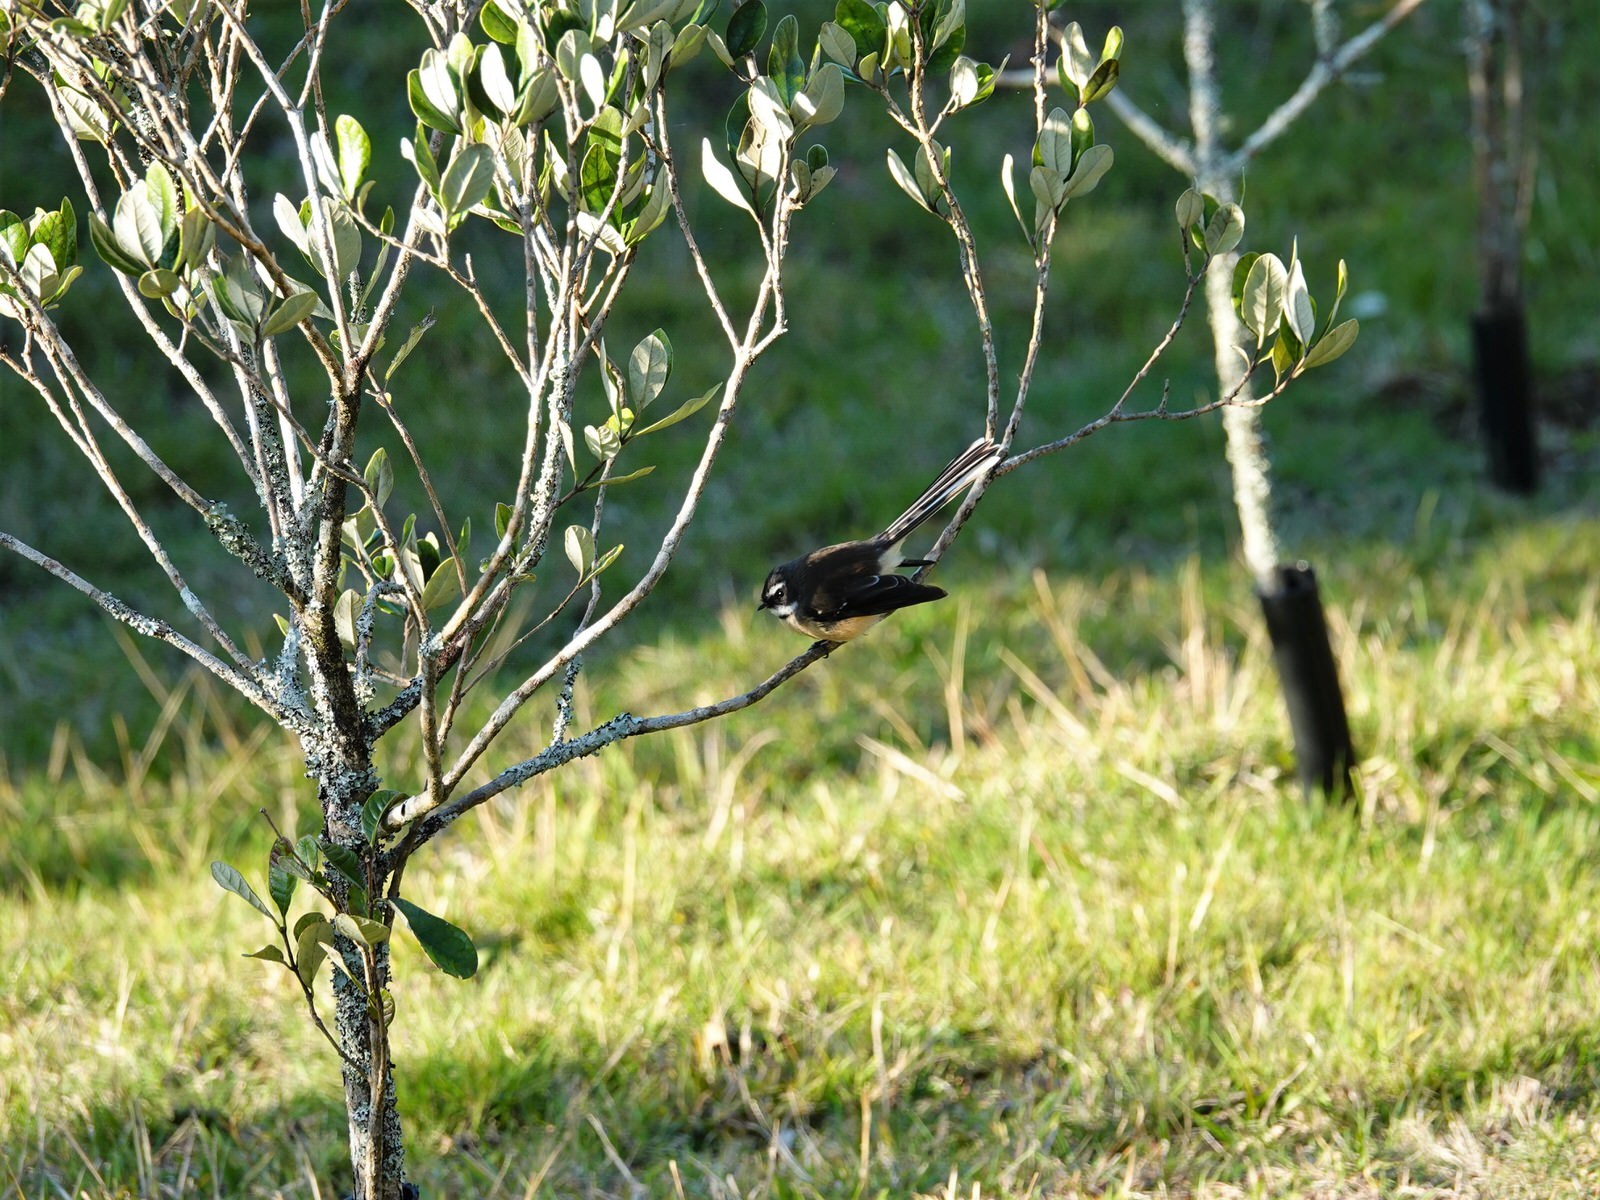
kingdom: Animalia
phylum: Chordata
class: Aves
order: Passeriformes
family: Rhipiduridae
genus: Rhipidura
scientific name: Rhipidura fuliginosa
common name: New zealand fantail
